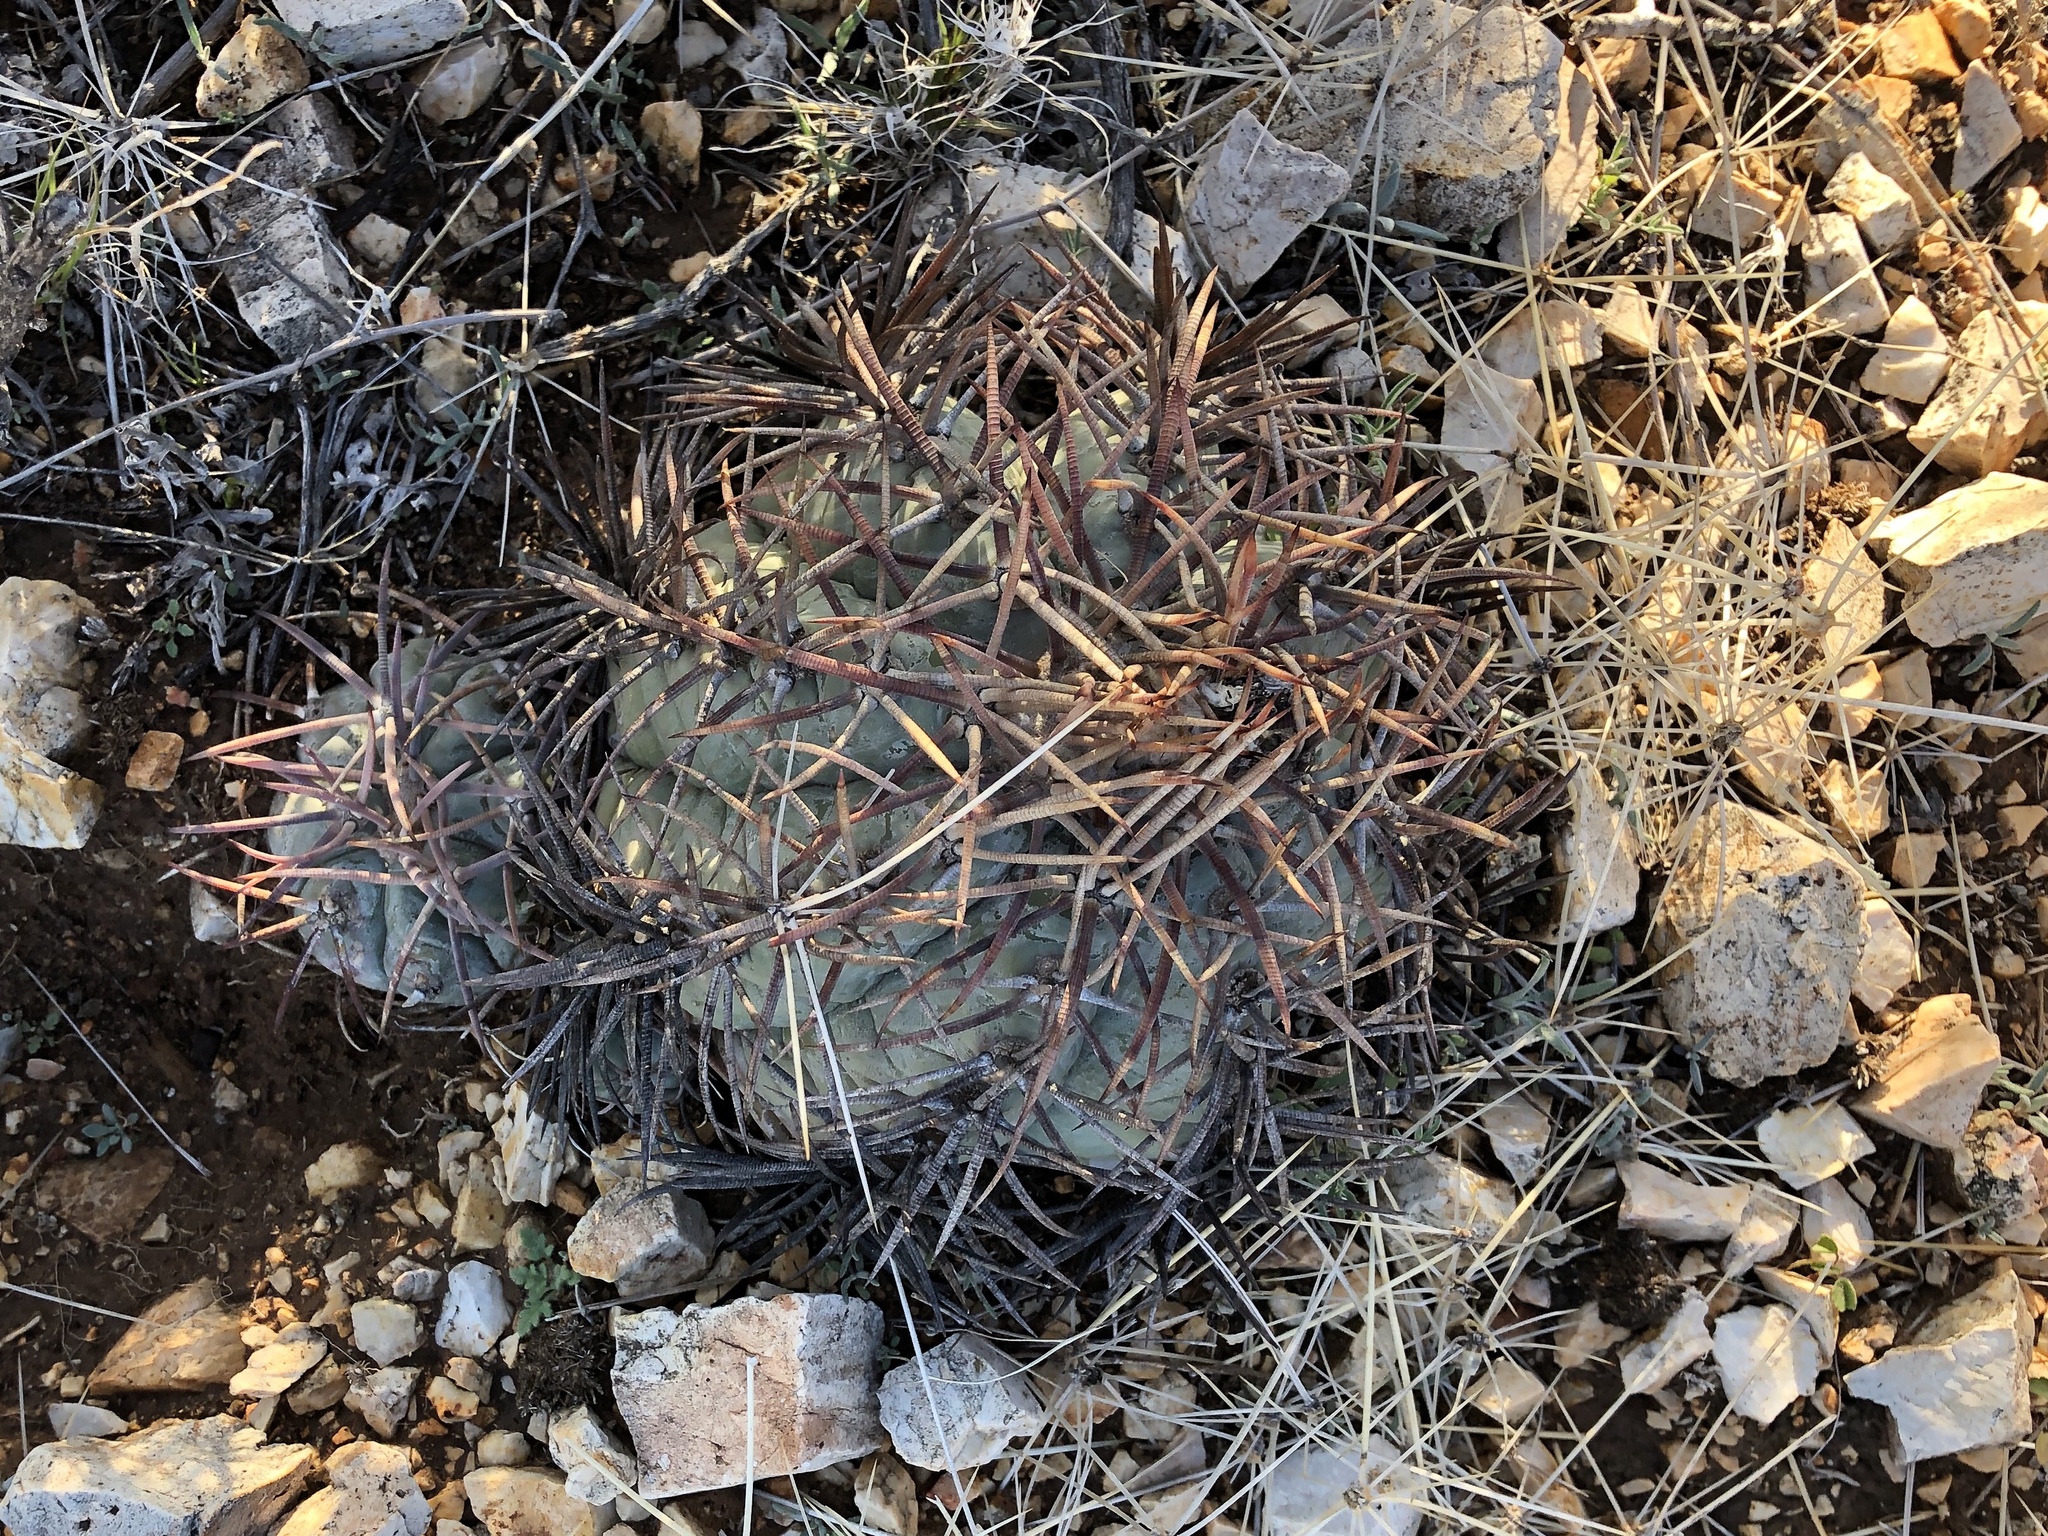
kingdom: Plantae
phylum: Tracheophyta
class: Magnoliopsida
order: Caryophyllales
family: Cactaceae
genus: Echinocactus
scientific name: Echinocactus horizonthalonius
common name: Devilshead
